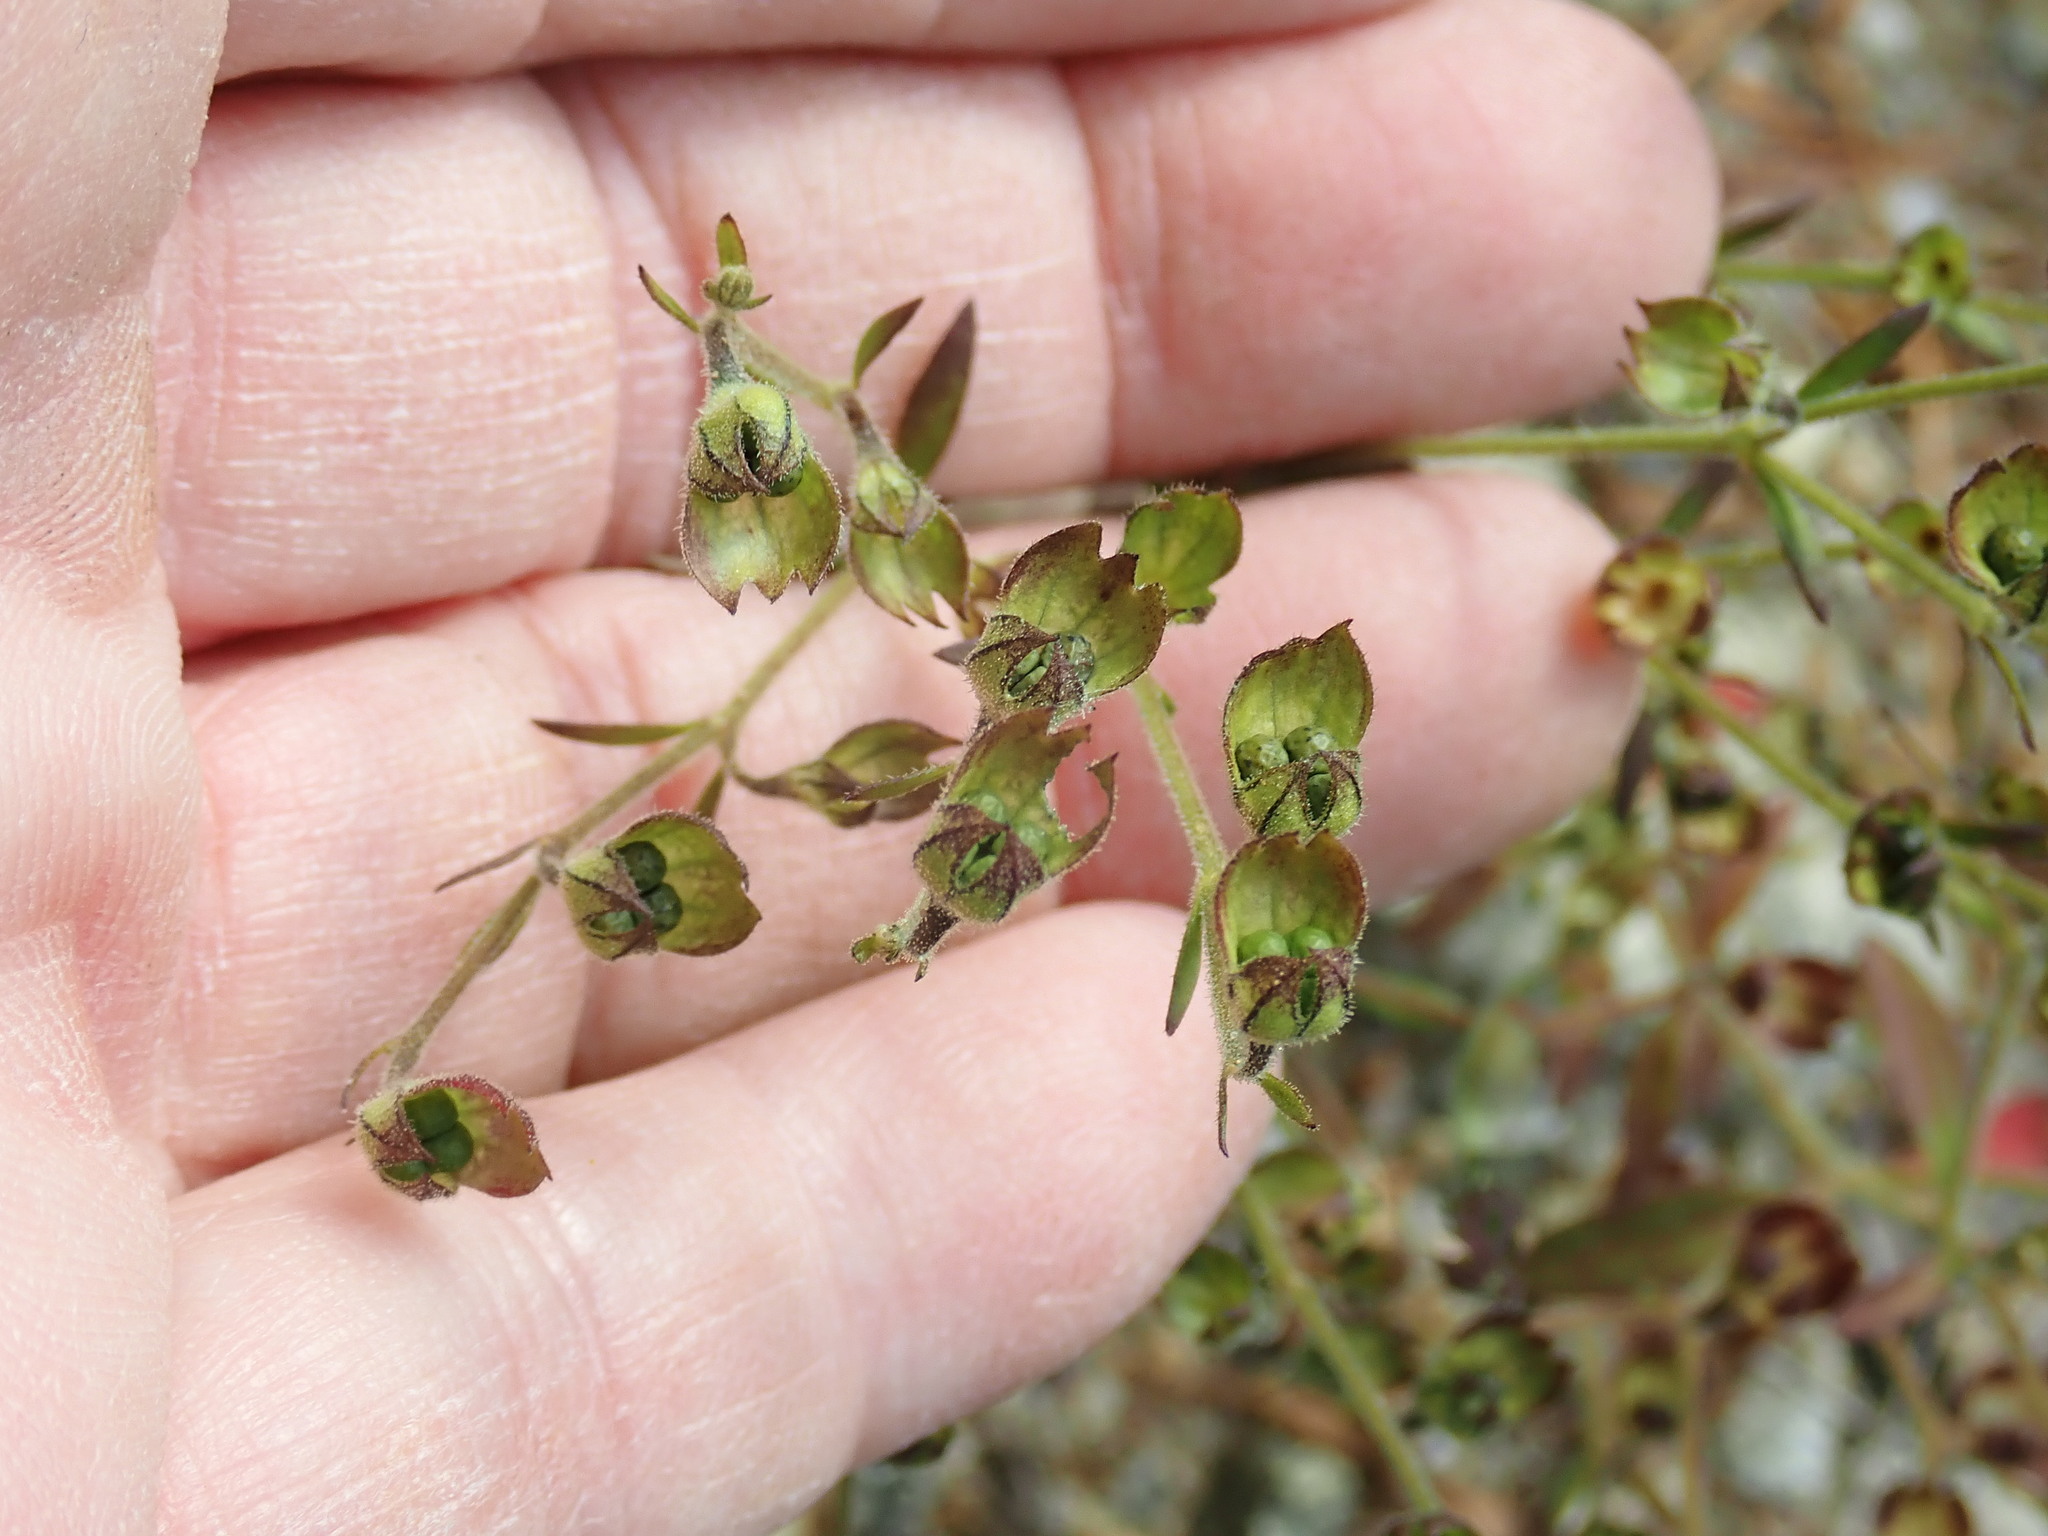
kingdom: Plantae
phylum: Tracheophyta
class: Magnoliopsida
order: Lamiales
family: Lamiaceae
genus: Trichostema
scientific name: Trichostema dichotomum
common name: Bastard pennyroyal
